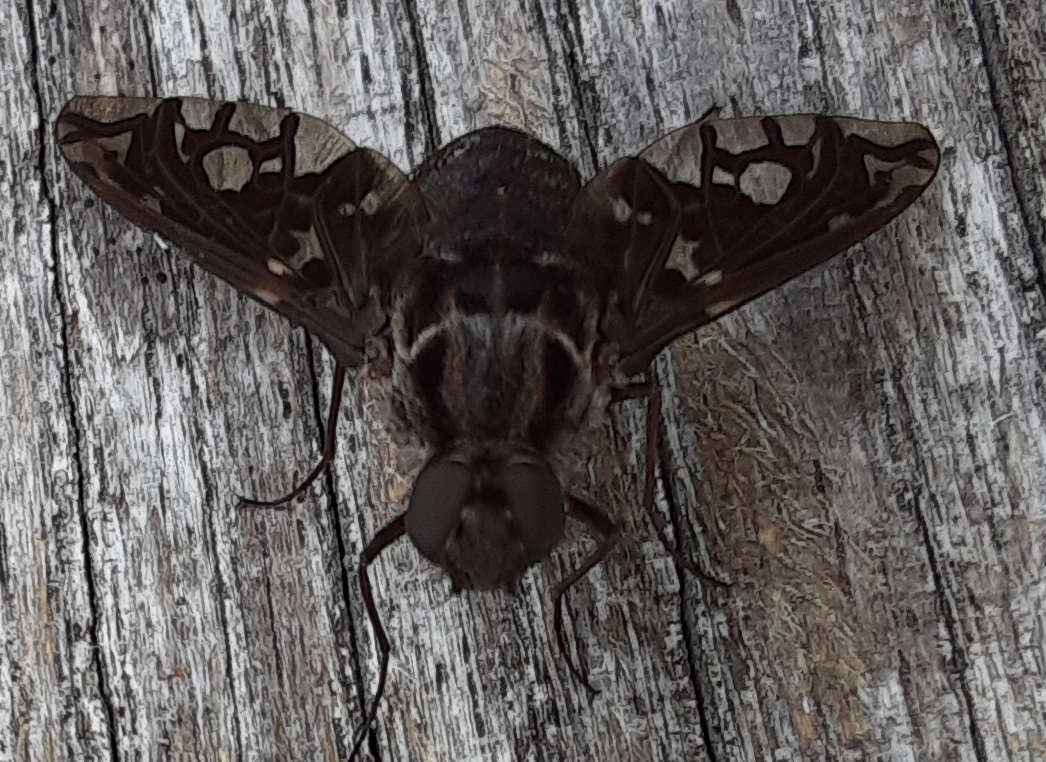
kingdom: Animalia
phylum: Arthropoda
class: Insecta
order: Diptera
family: Bombyliidae
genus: Xenox
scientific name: Xenox tigrinus
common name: Tiger bee fly
